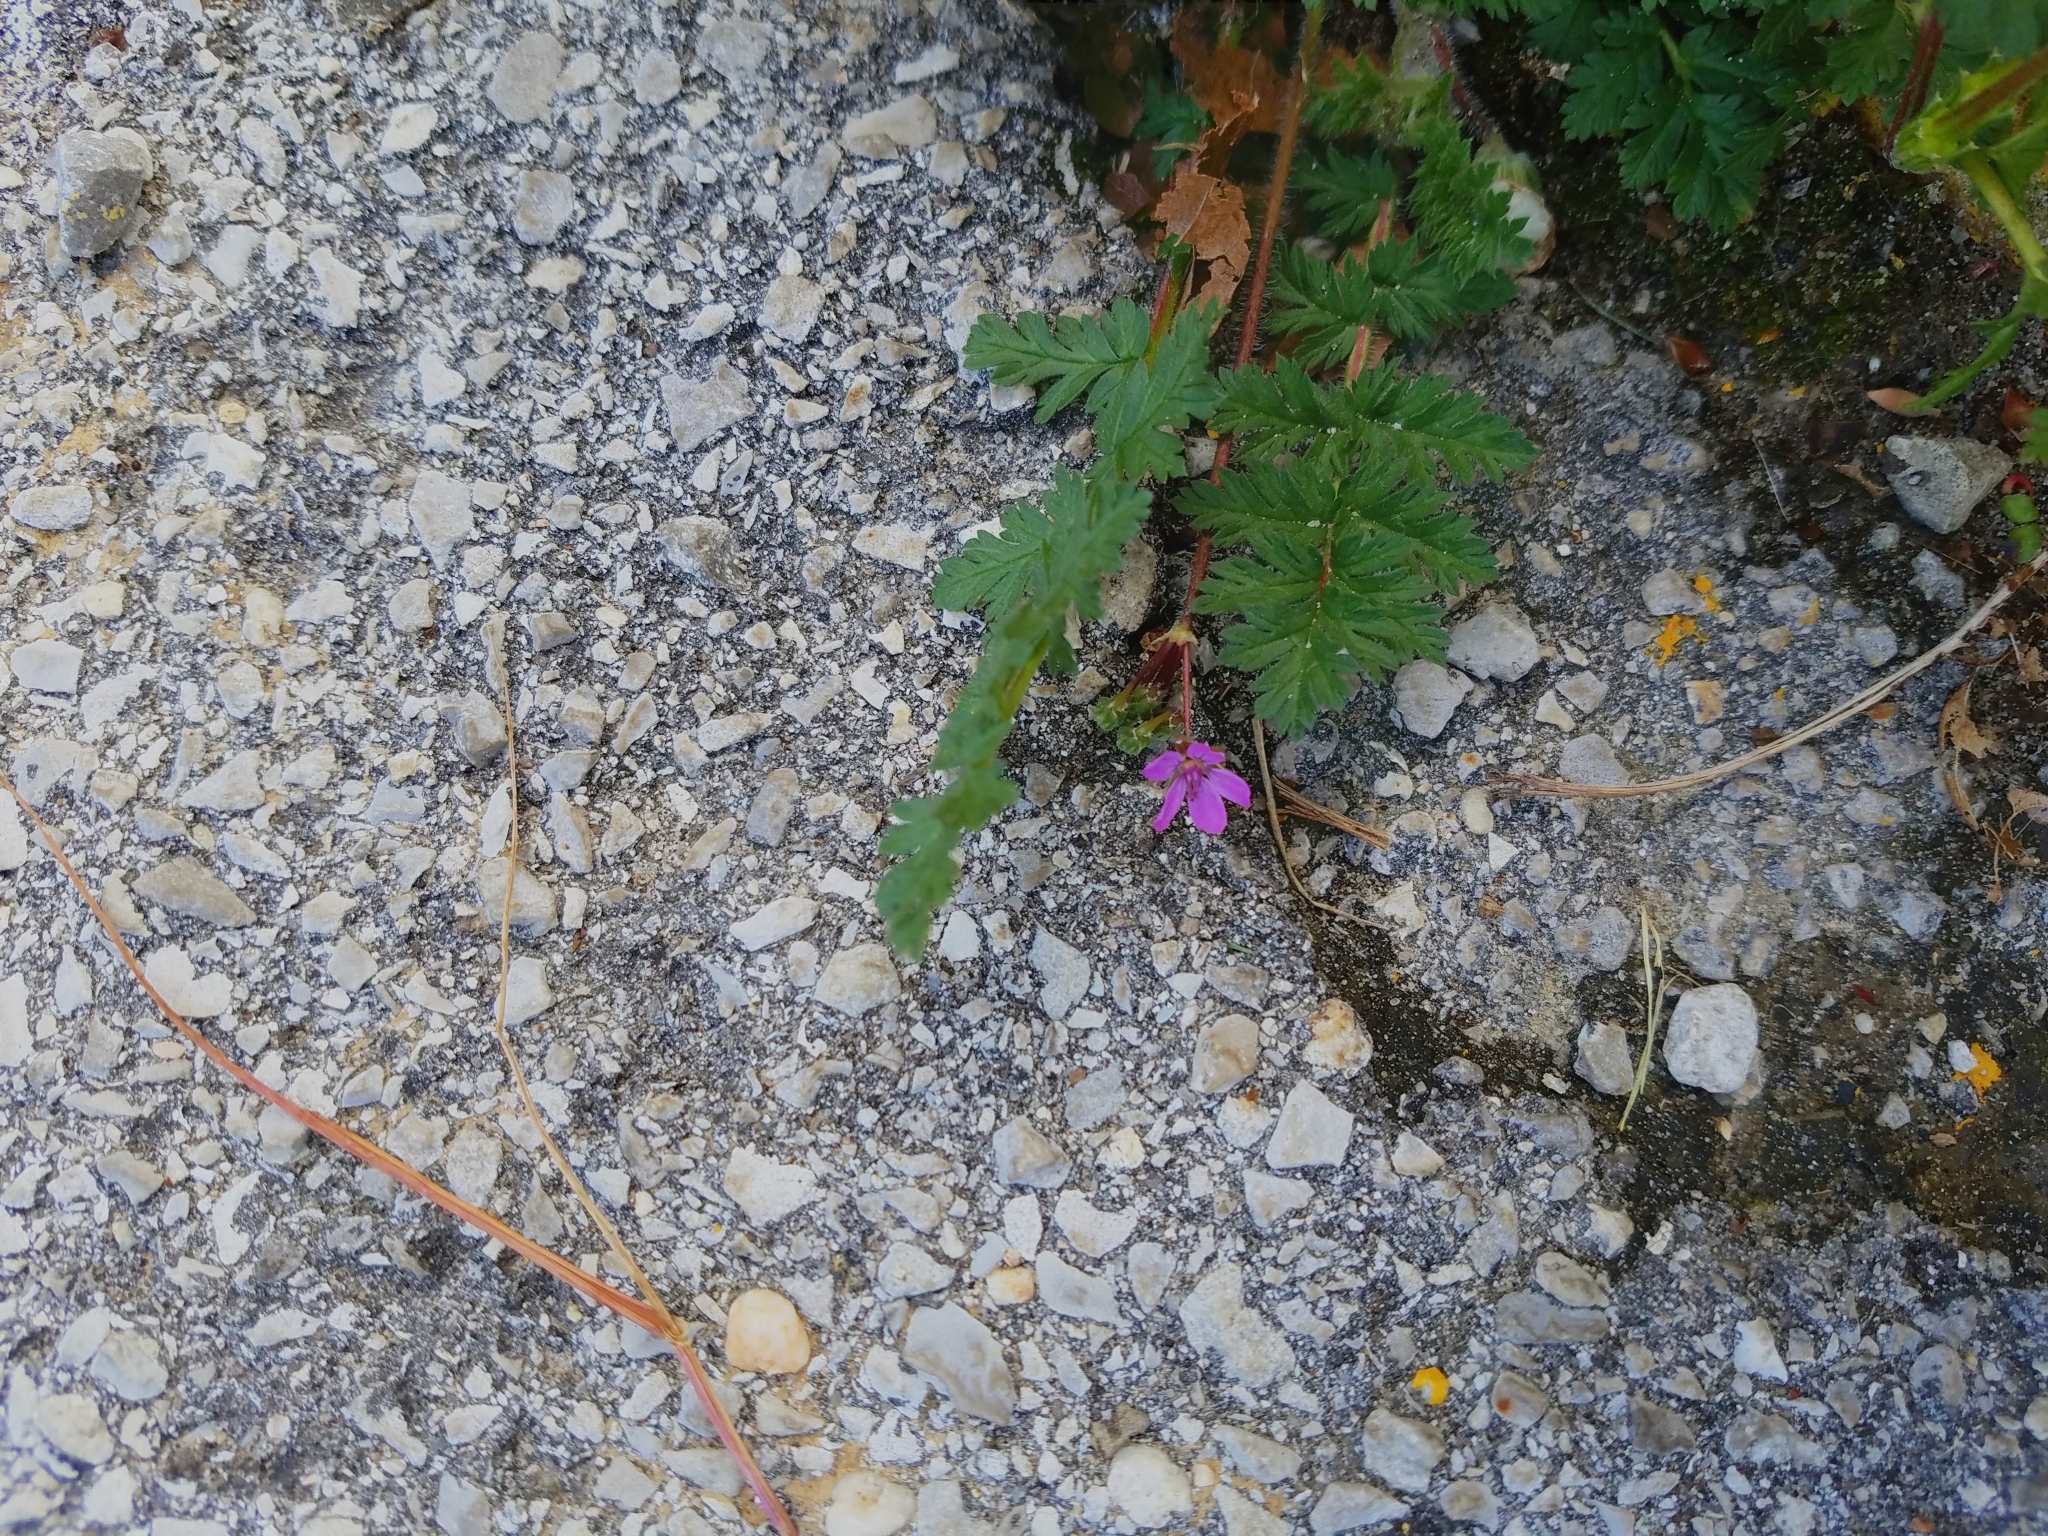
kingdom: Plantae
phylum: Tracheophyta
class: Magnoliopsida
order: Geraniales
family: Geraniaceae
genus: Erodium
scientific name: Erodium cicutarium
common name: Common stork's-bill
